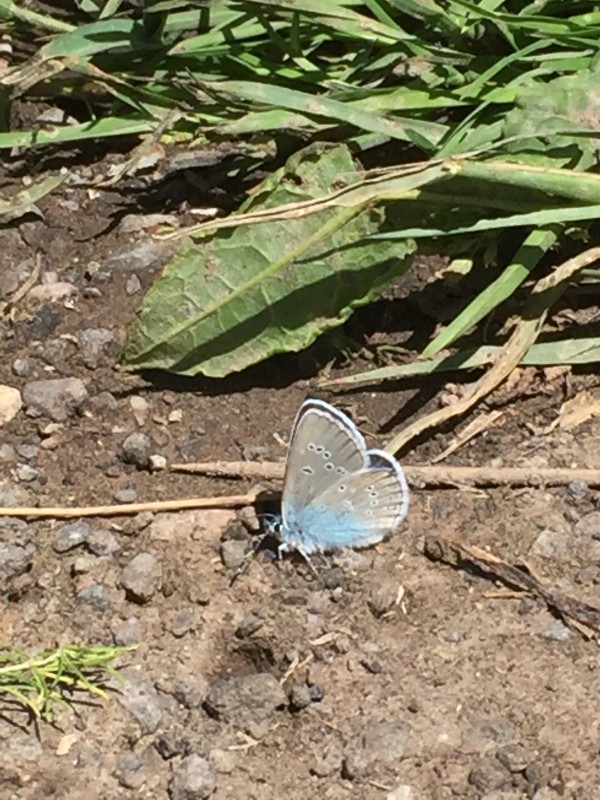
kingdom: Animalia
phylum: Arthropoda
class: Insecta
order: Lepidoptera
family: Lycaenidae
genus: Cyaniris
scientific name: Cyaniris semiargus
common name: Mazarine blue
